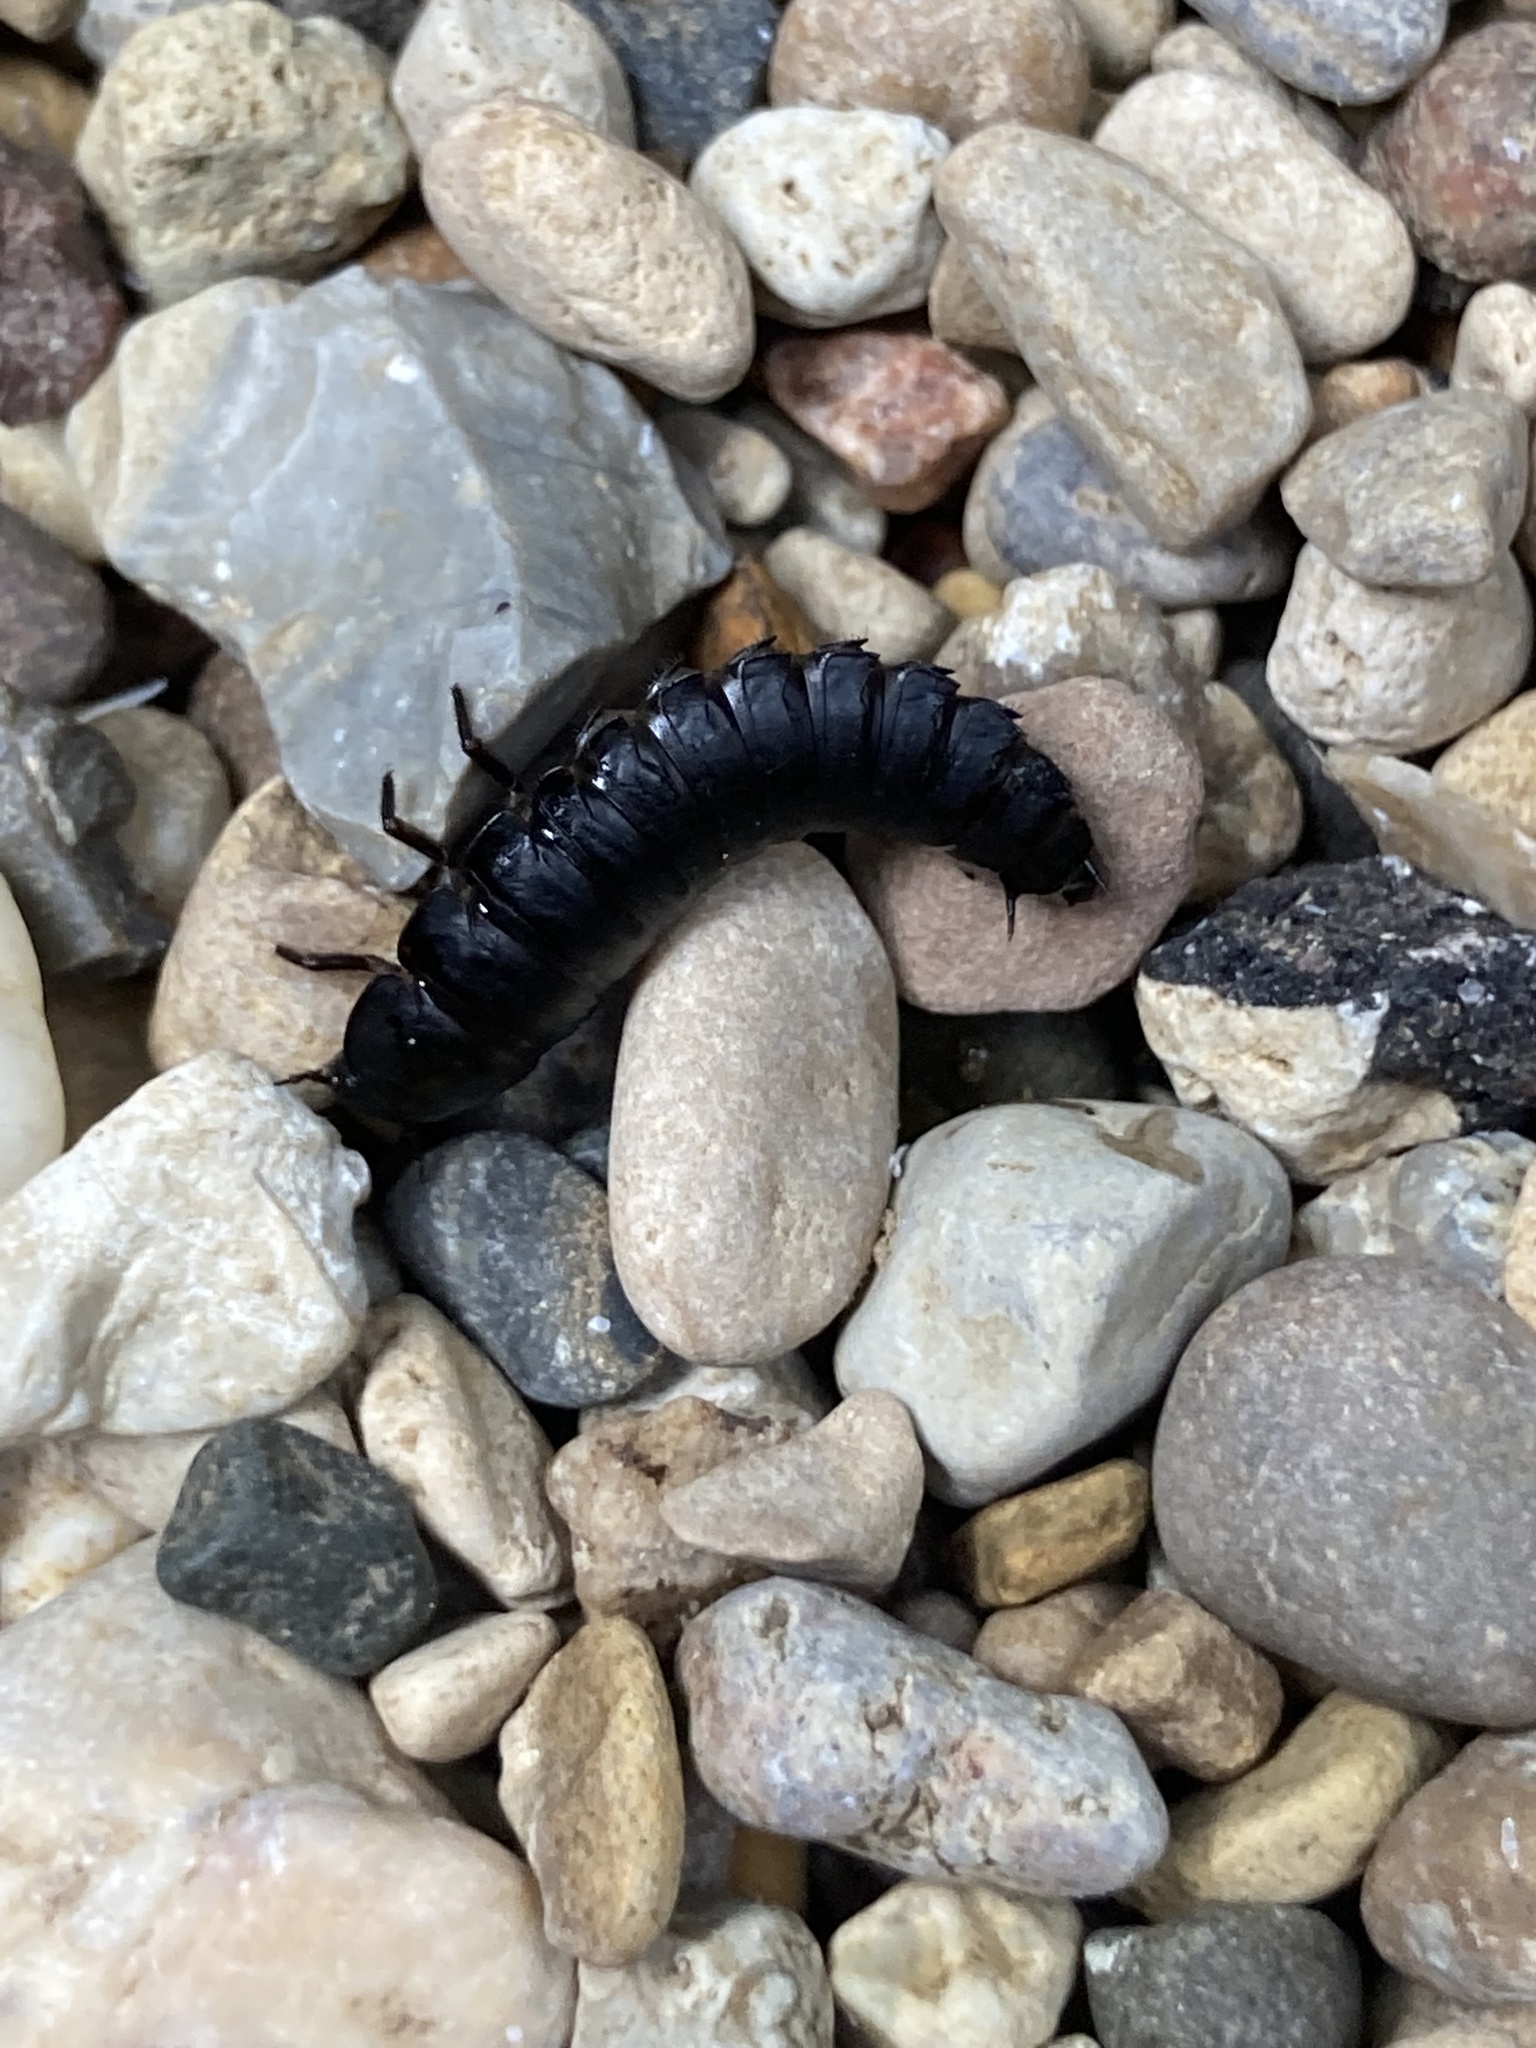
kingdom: Animalia
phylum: Arthropoda
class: Insecta
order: Coleoptera
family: Staphylinidae
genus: Oiceoptoma
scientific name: Oiceoptoma inaequale
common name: Ridged carrion beetle
